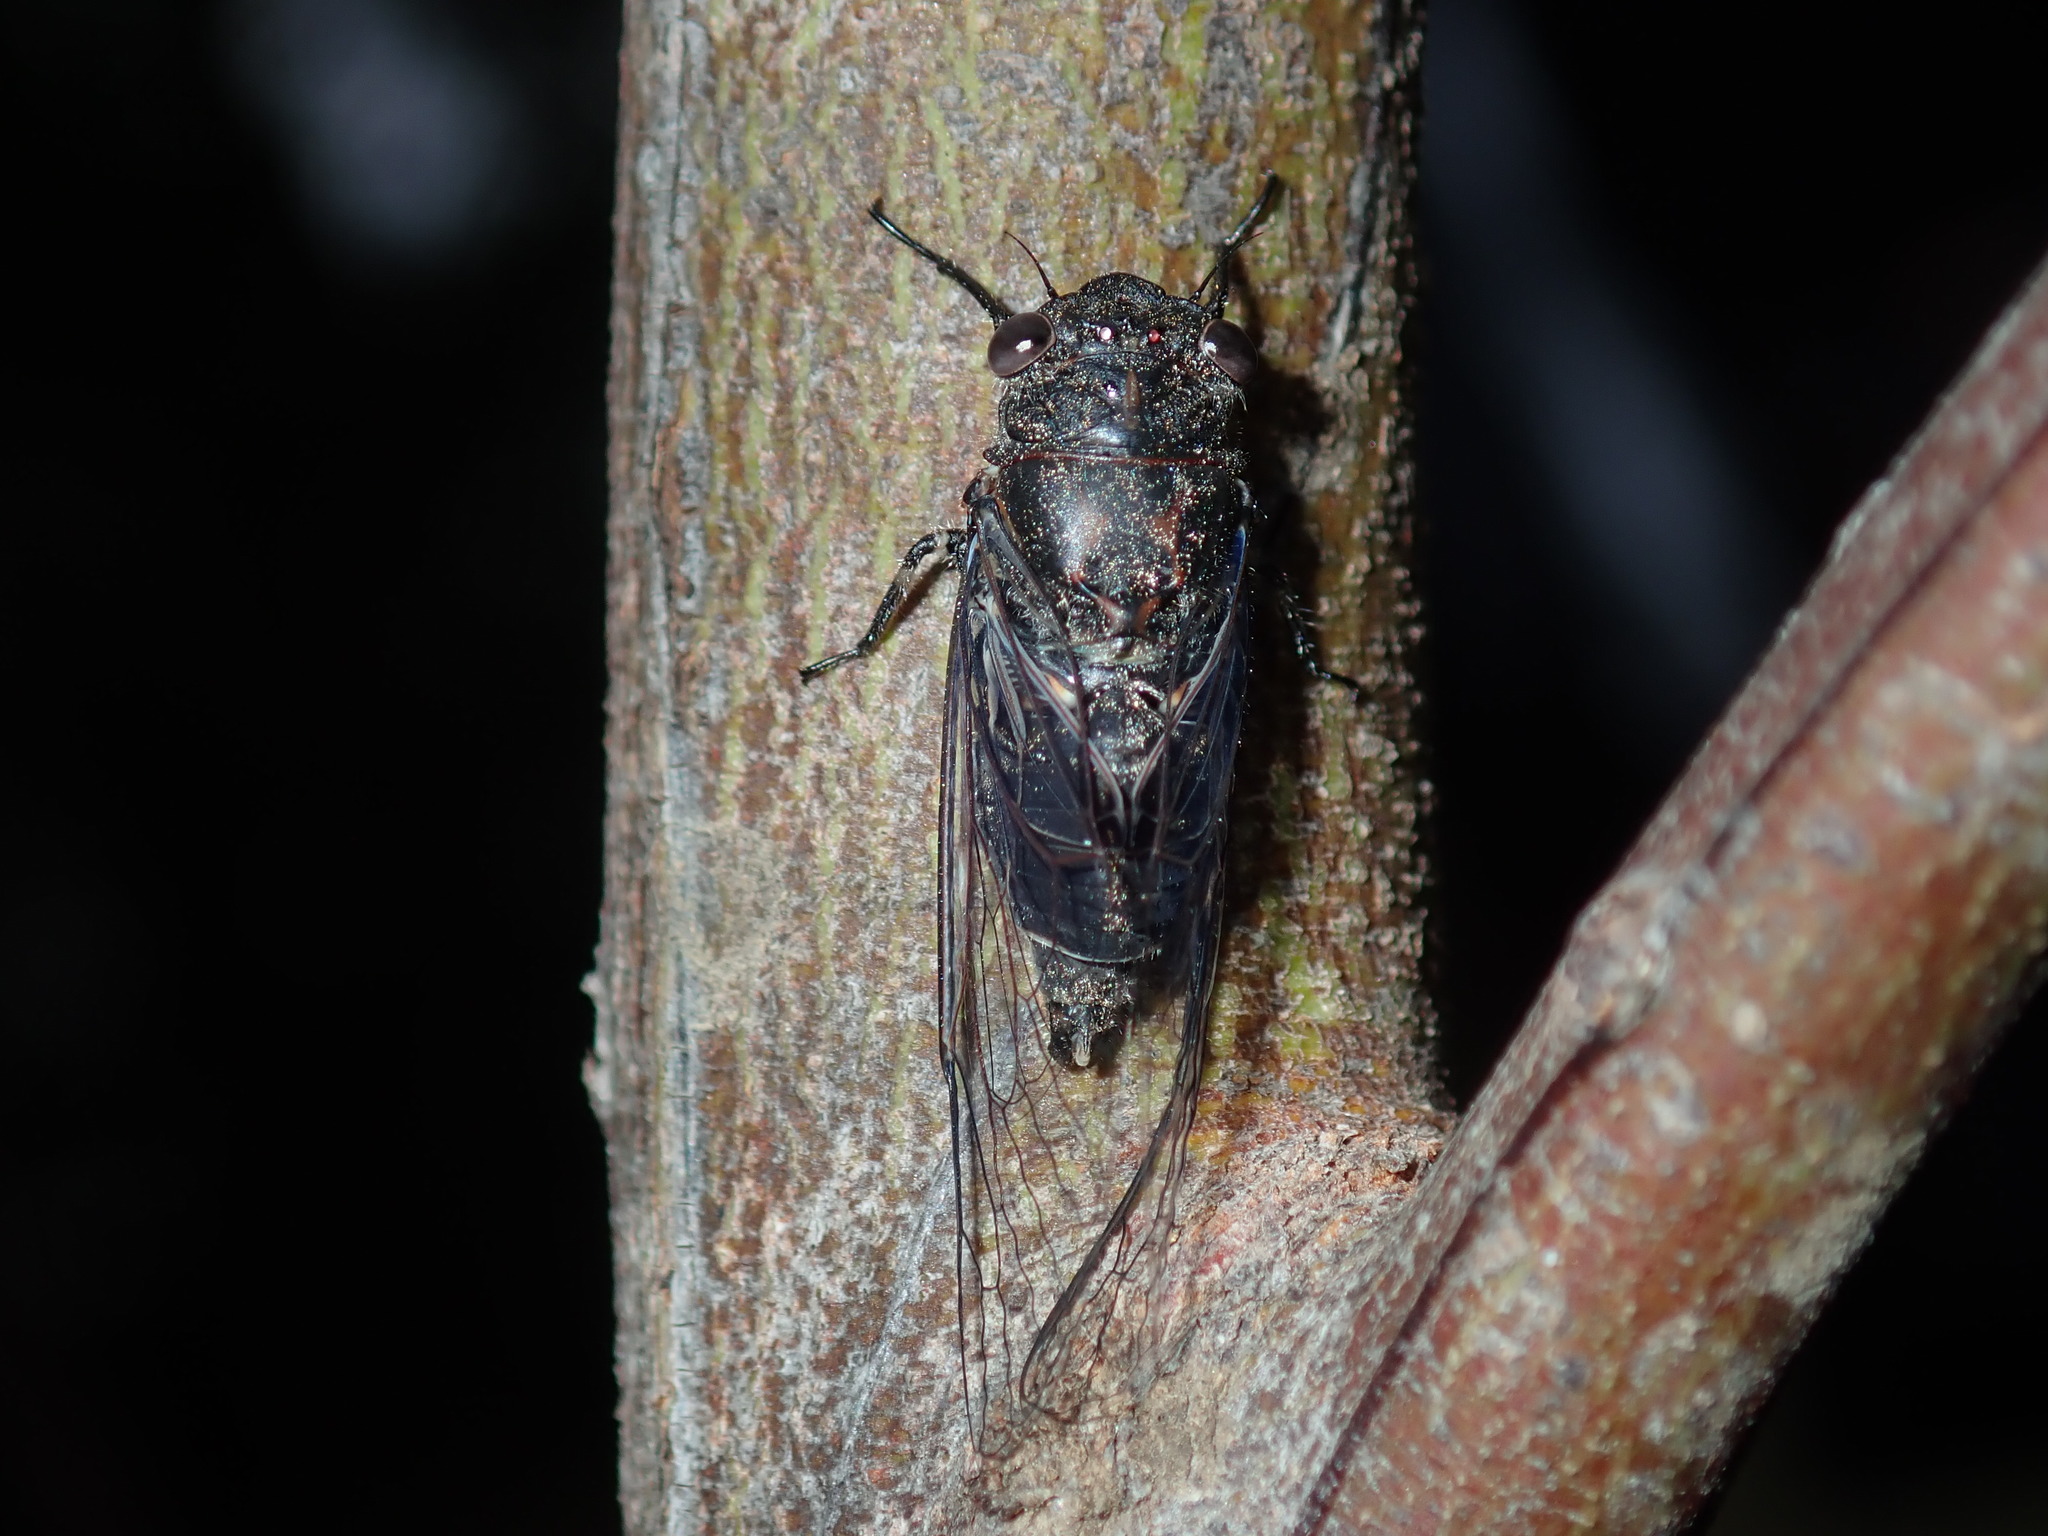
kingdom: Animalia
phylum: Arthropoda
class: Insecta
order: Hemiptera
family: Cicadidae
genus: Atrapsalta
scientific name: Atrapsalta corticina
